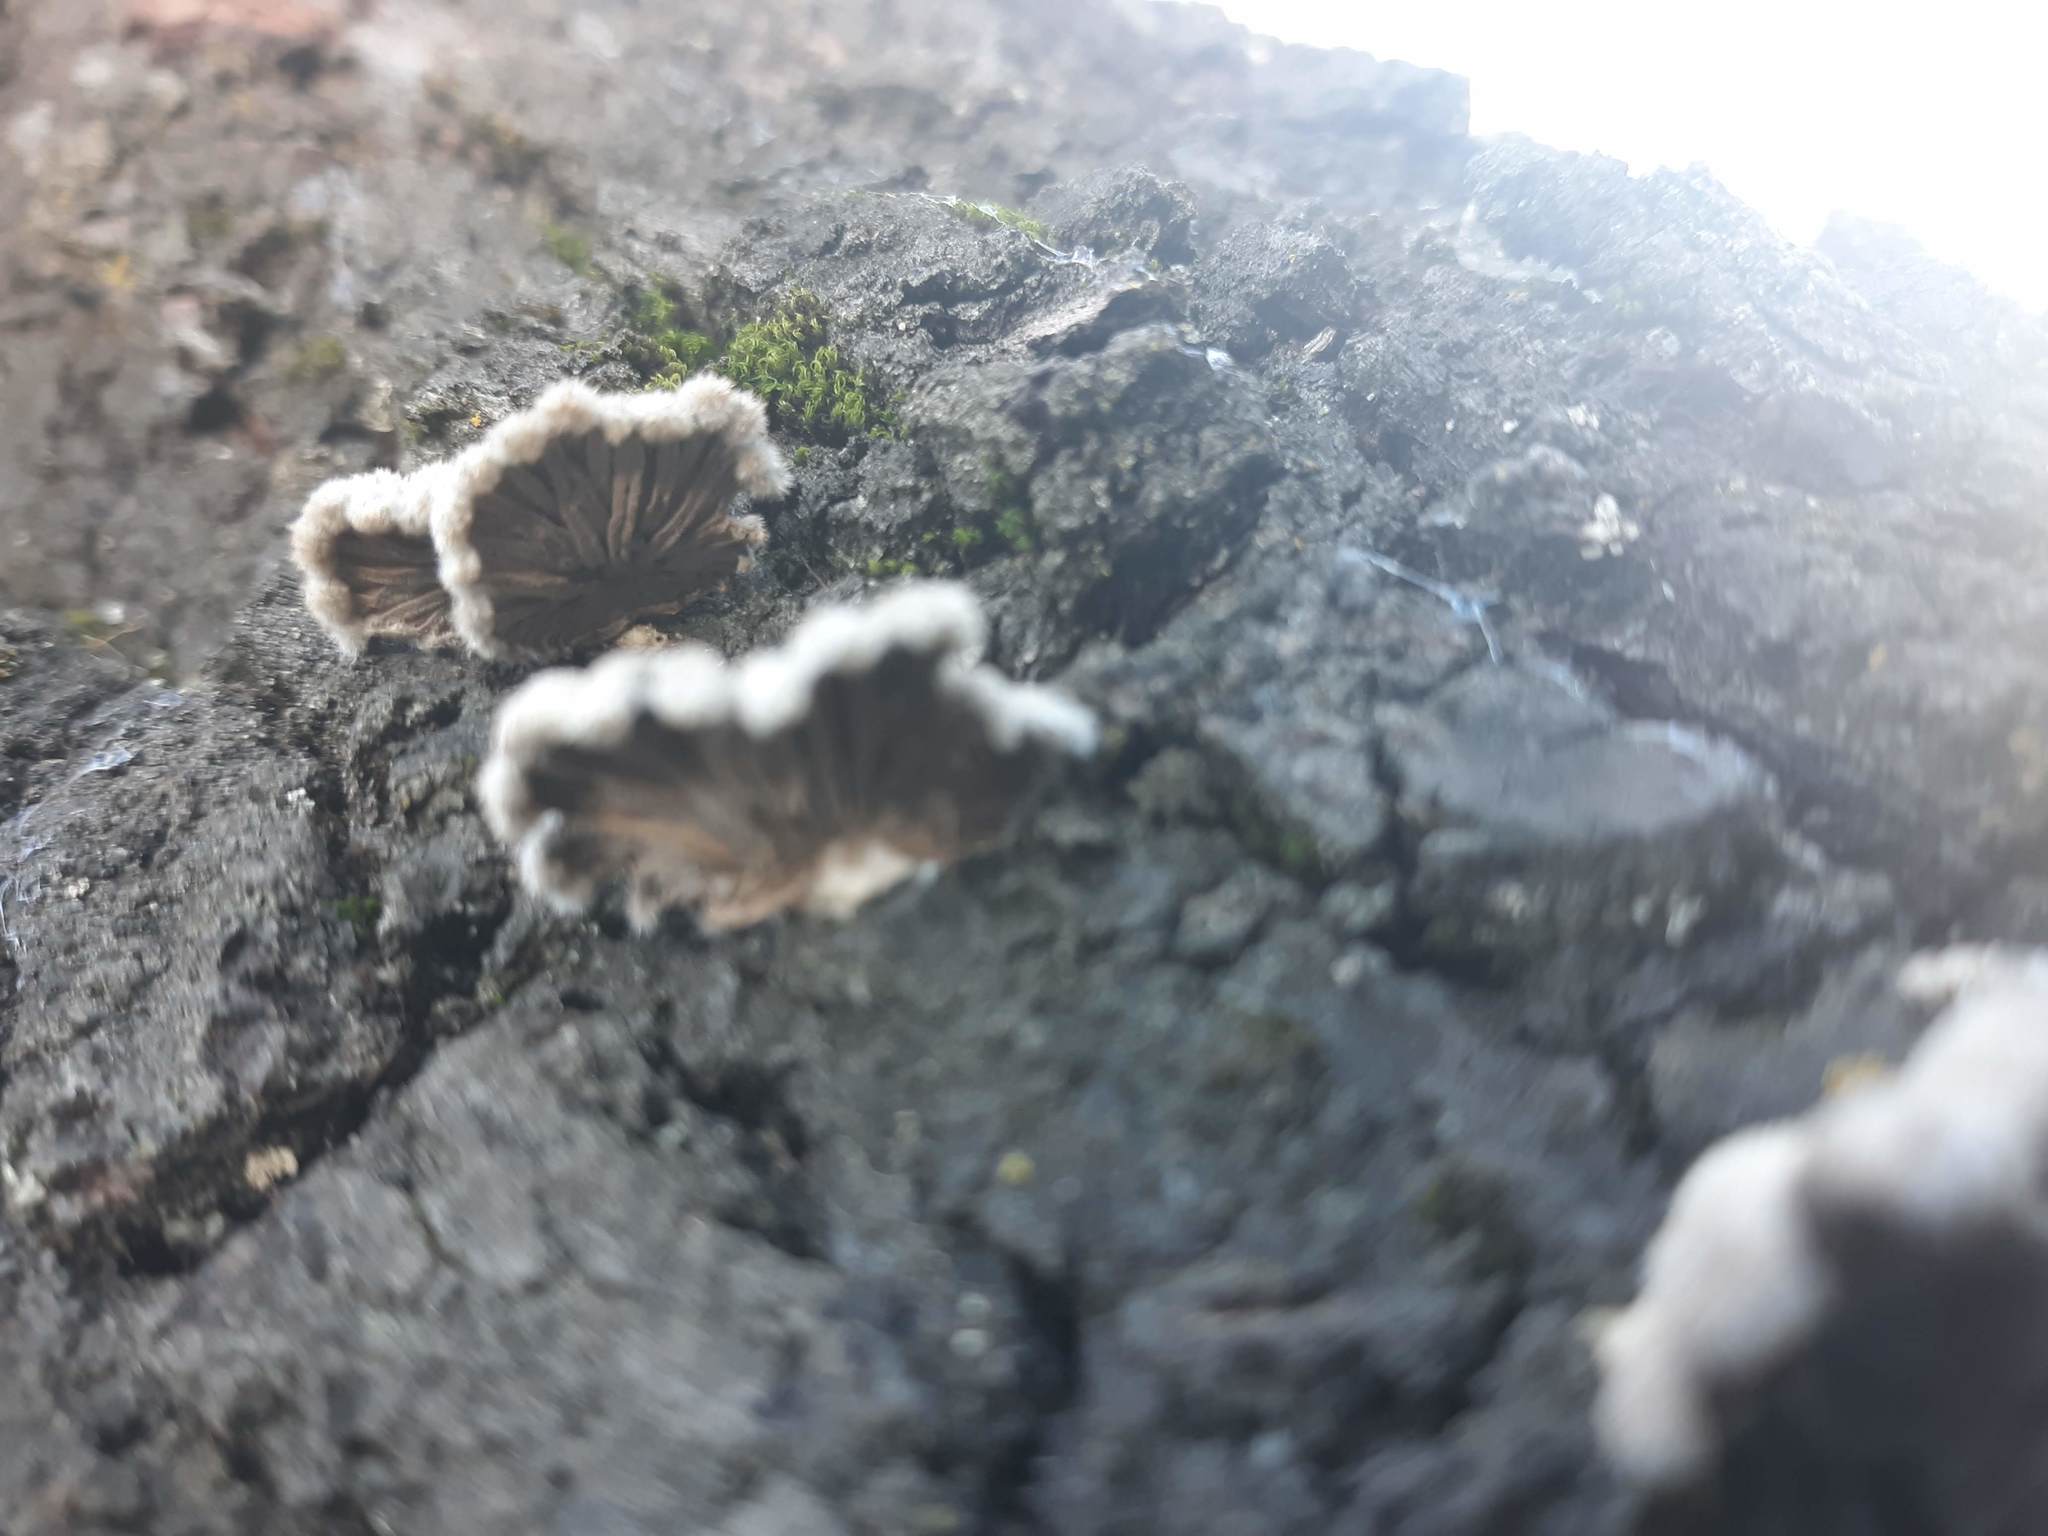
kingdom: Fungi
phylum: Basidiomycota
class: Agaricomycetes
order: Agaricales
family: Schizophyllaceae
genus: Schizophyllum
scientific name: Schizophyllum commune
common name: Common porecrust
